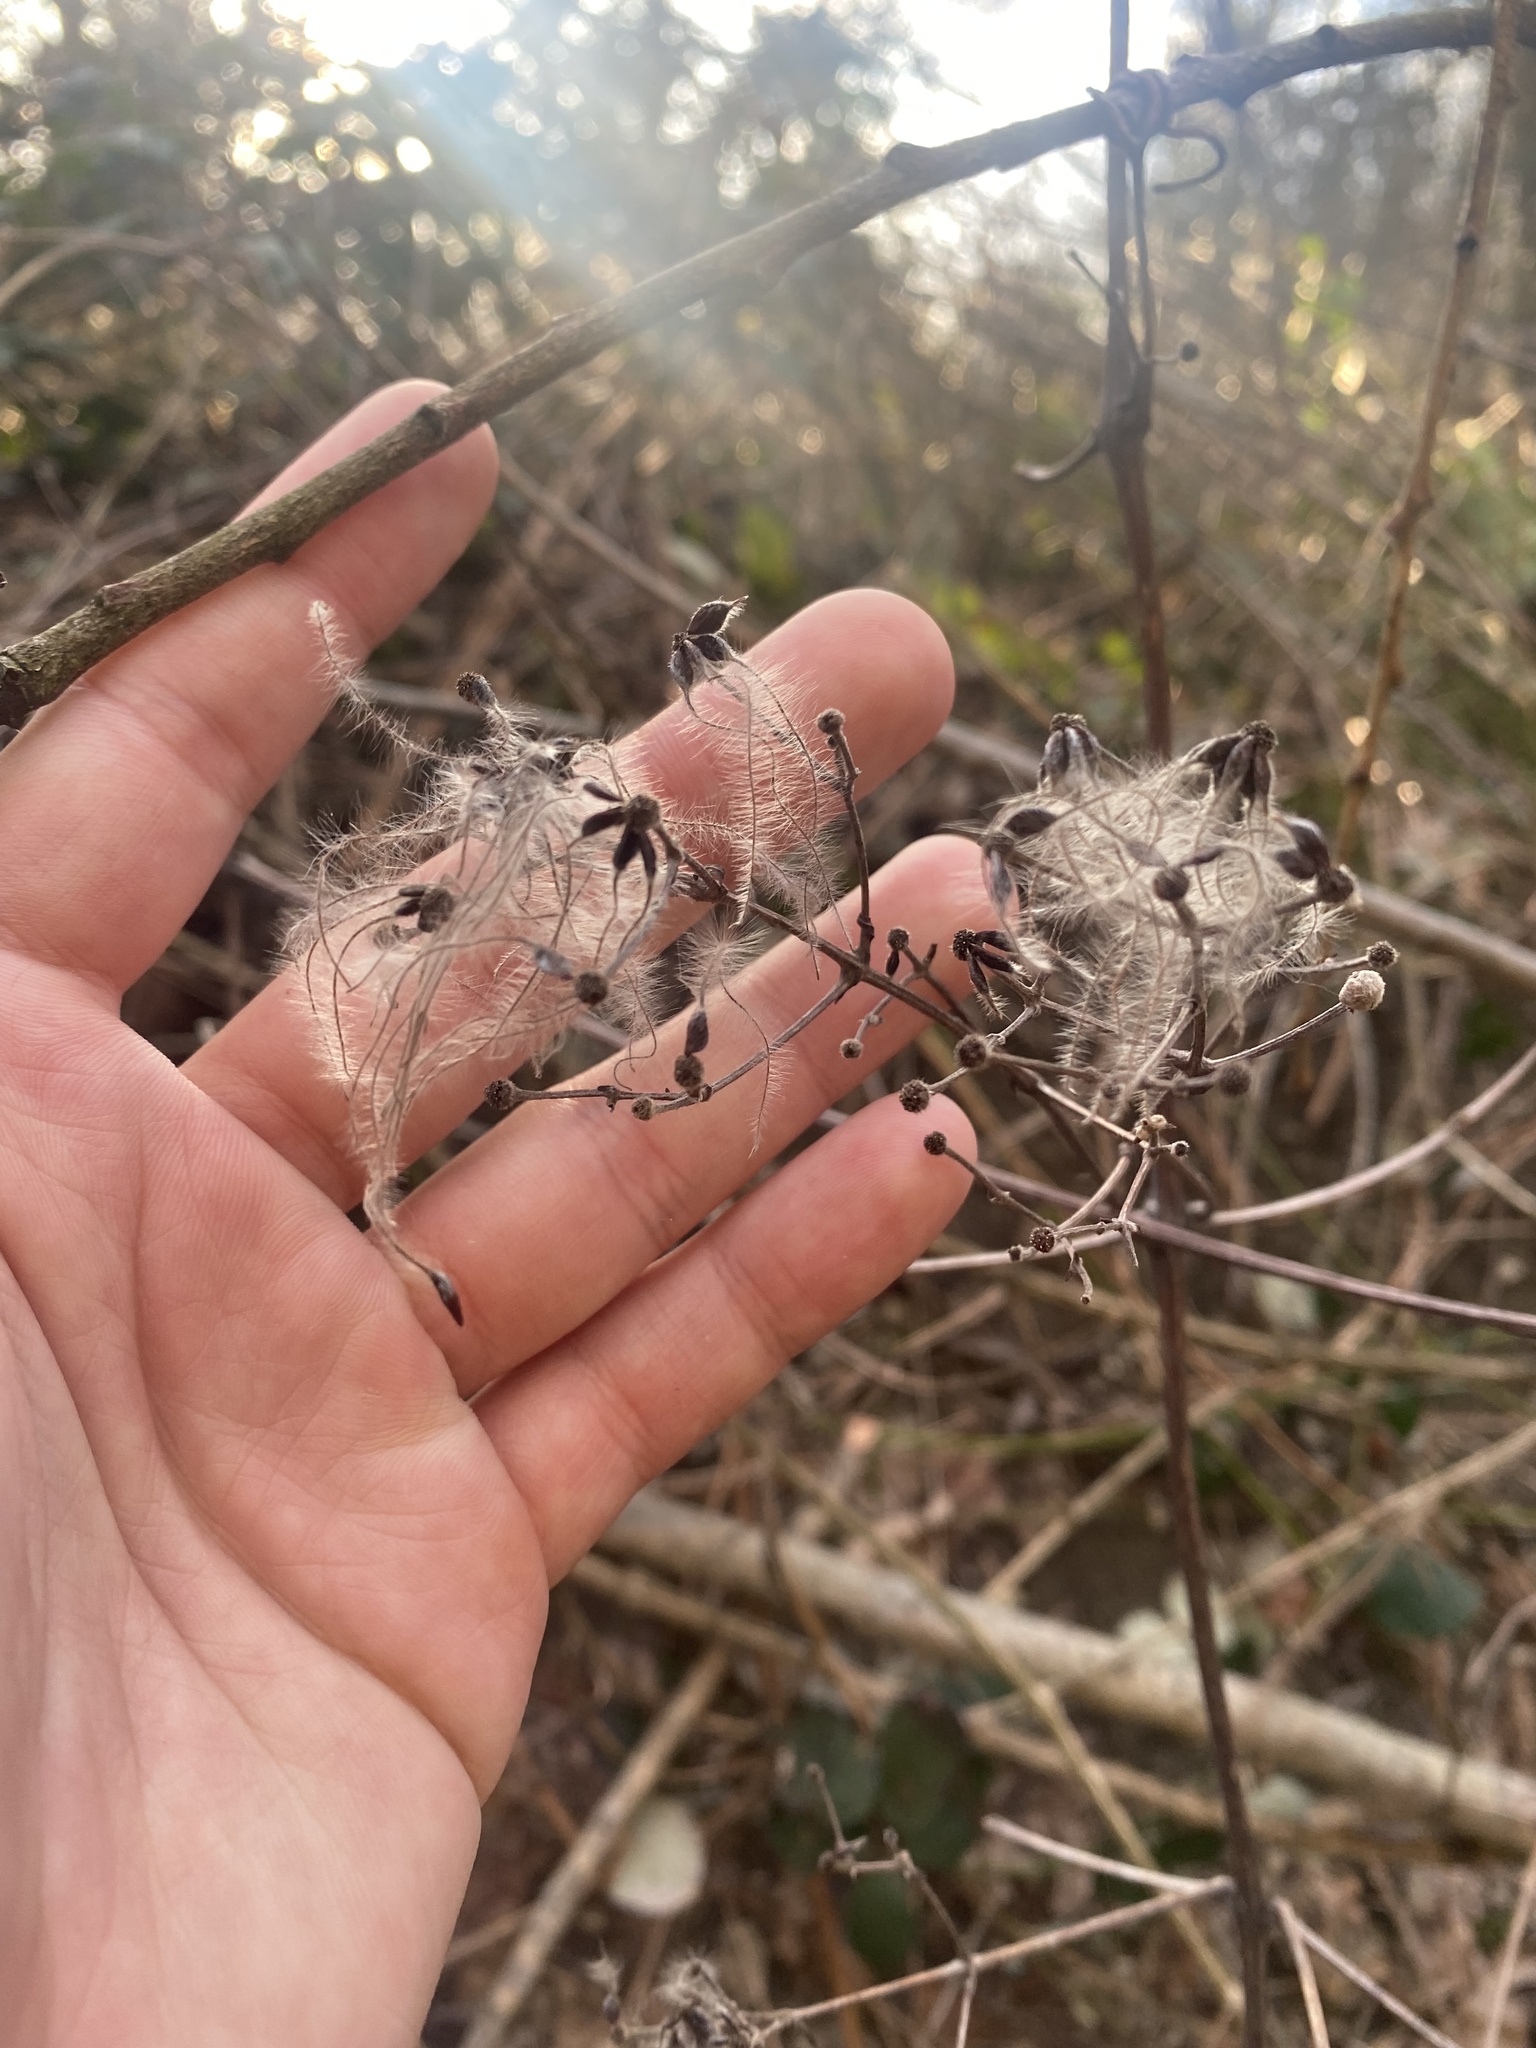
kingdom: Plantae
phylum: Tracheophyta
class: Magnoliopsida
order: Ranunculales
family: Ranunculaceae
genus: Clematis
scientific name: Clematis vitalba
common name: Evergreen clematis
